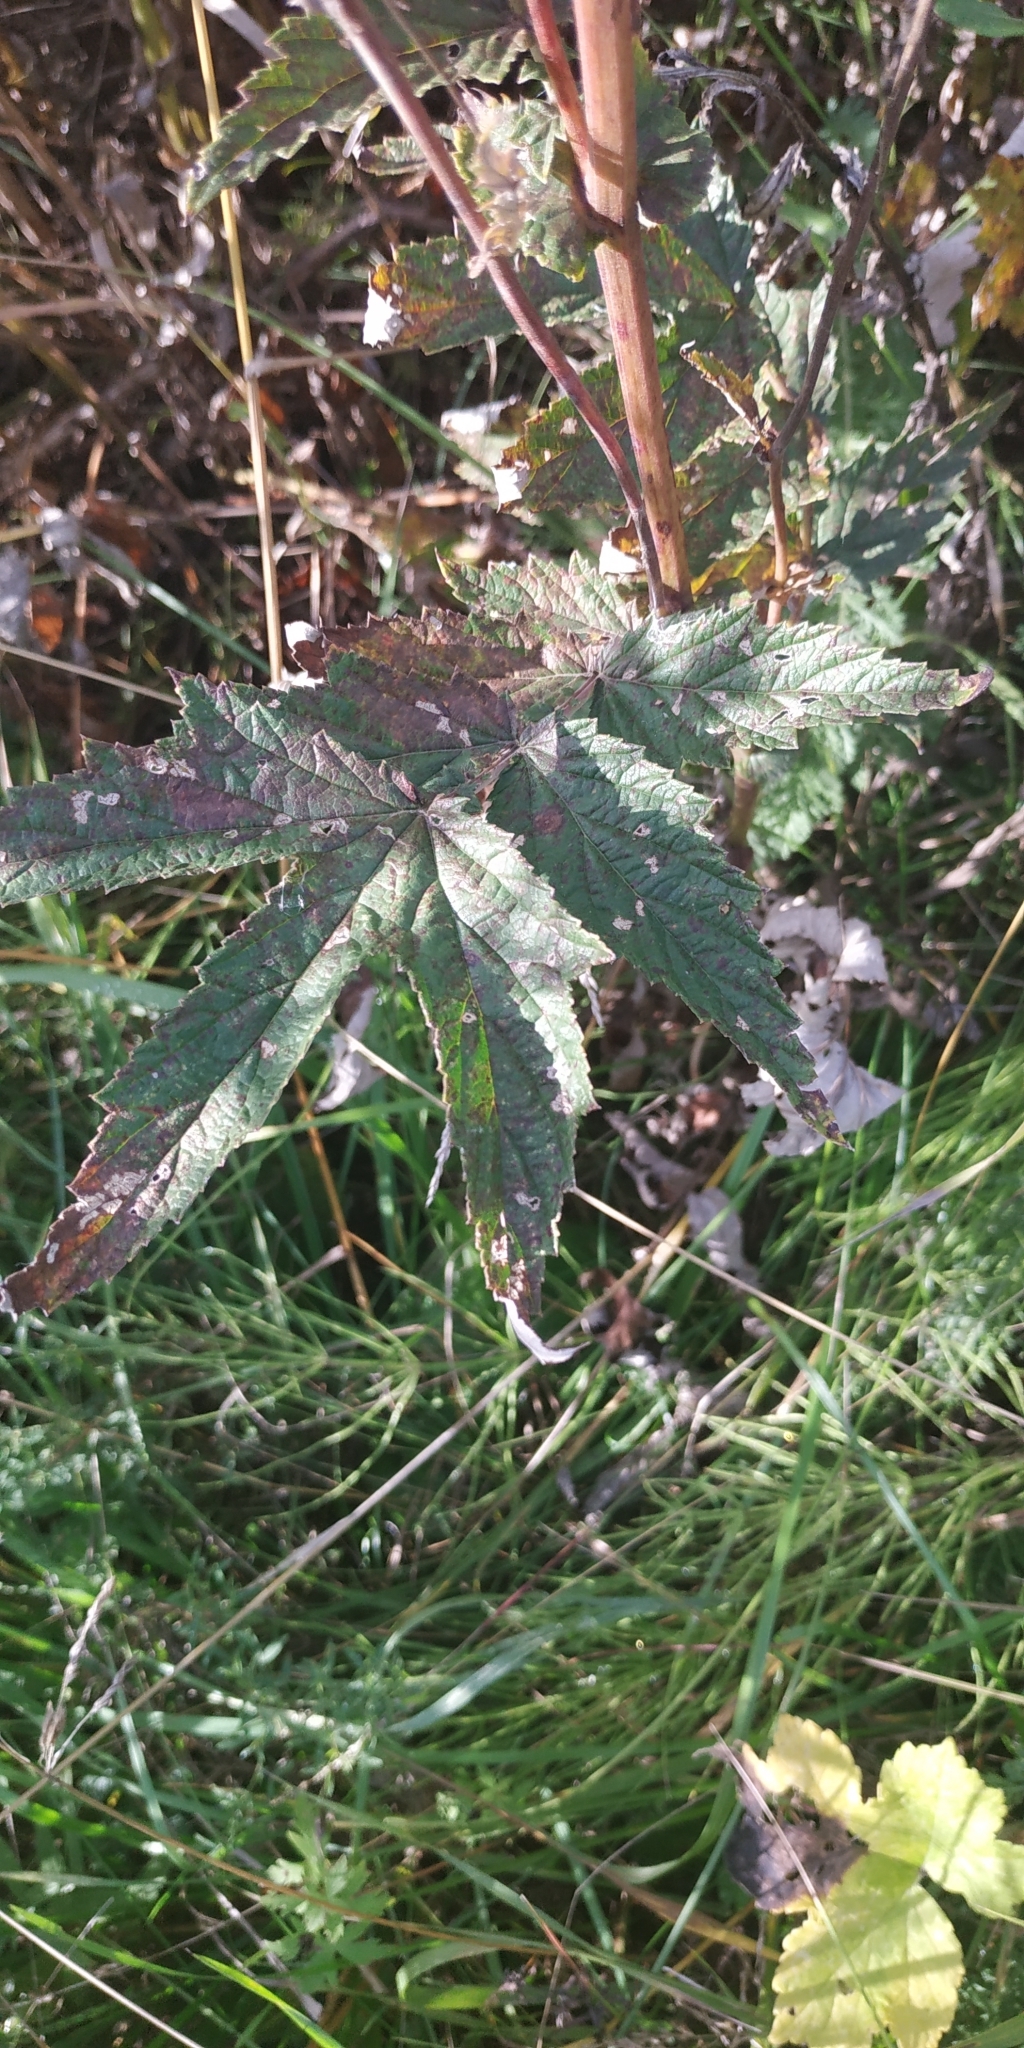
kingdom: Plantae
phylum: Tracheophyta
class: Magnoliopsida
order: Rosales
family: Rosaceae
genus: Filipendula
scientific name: Filipendula ulmaria
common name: Meadowsweet
